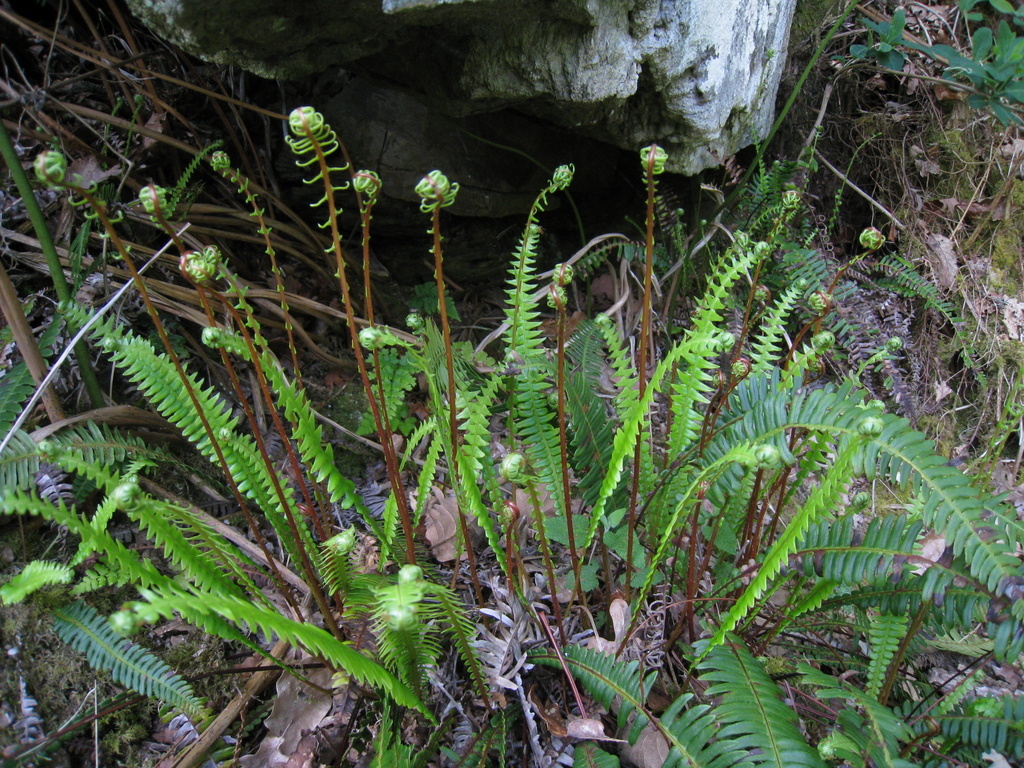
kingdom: Plantae
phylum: Tracheophyta
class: Polypodiopsida
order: Polypodiales
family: Blechnaceae
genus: Struthiopteris
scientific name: Struthiopteris spicant
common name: Deer fern
